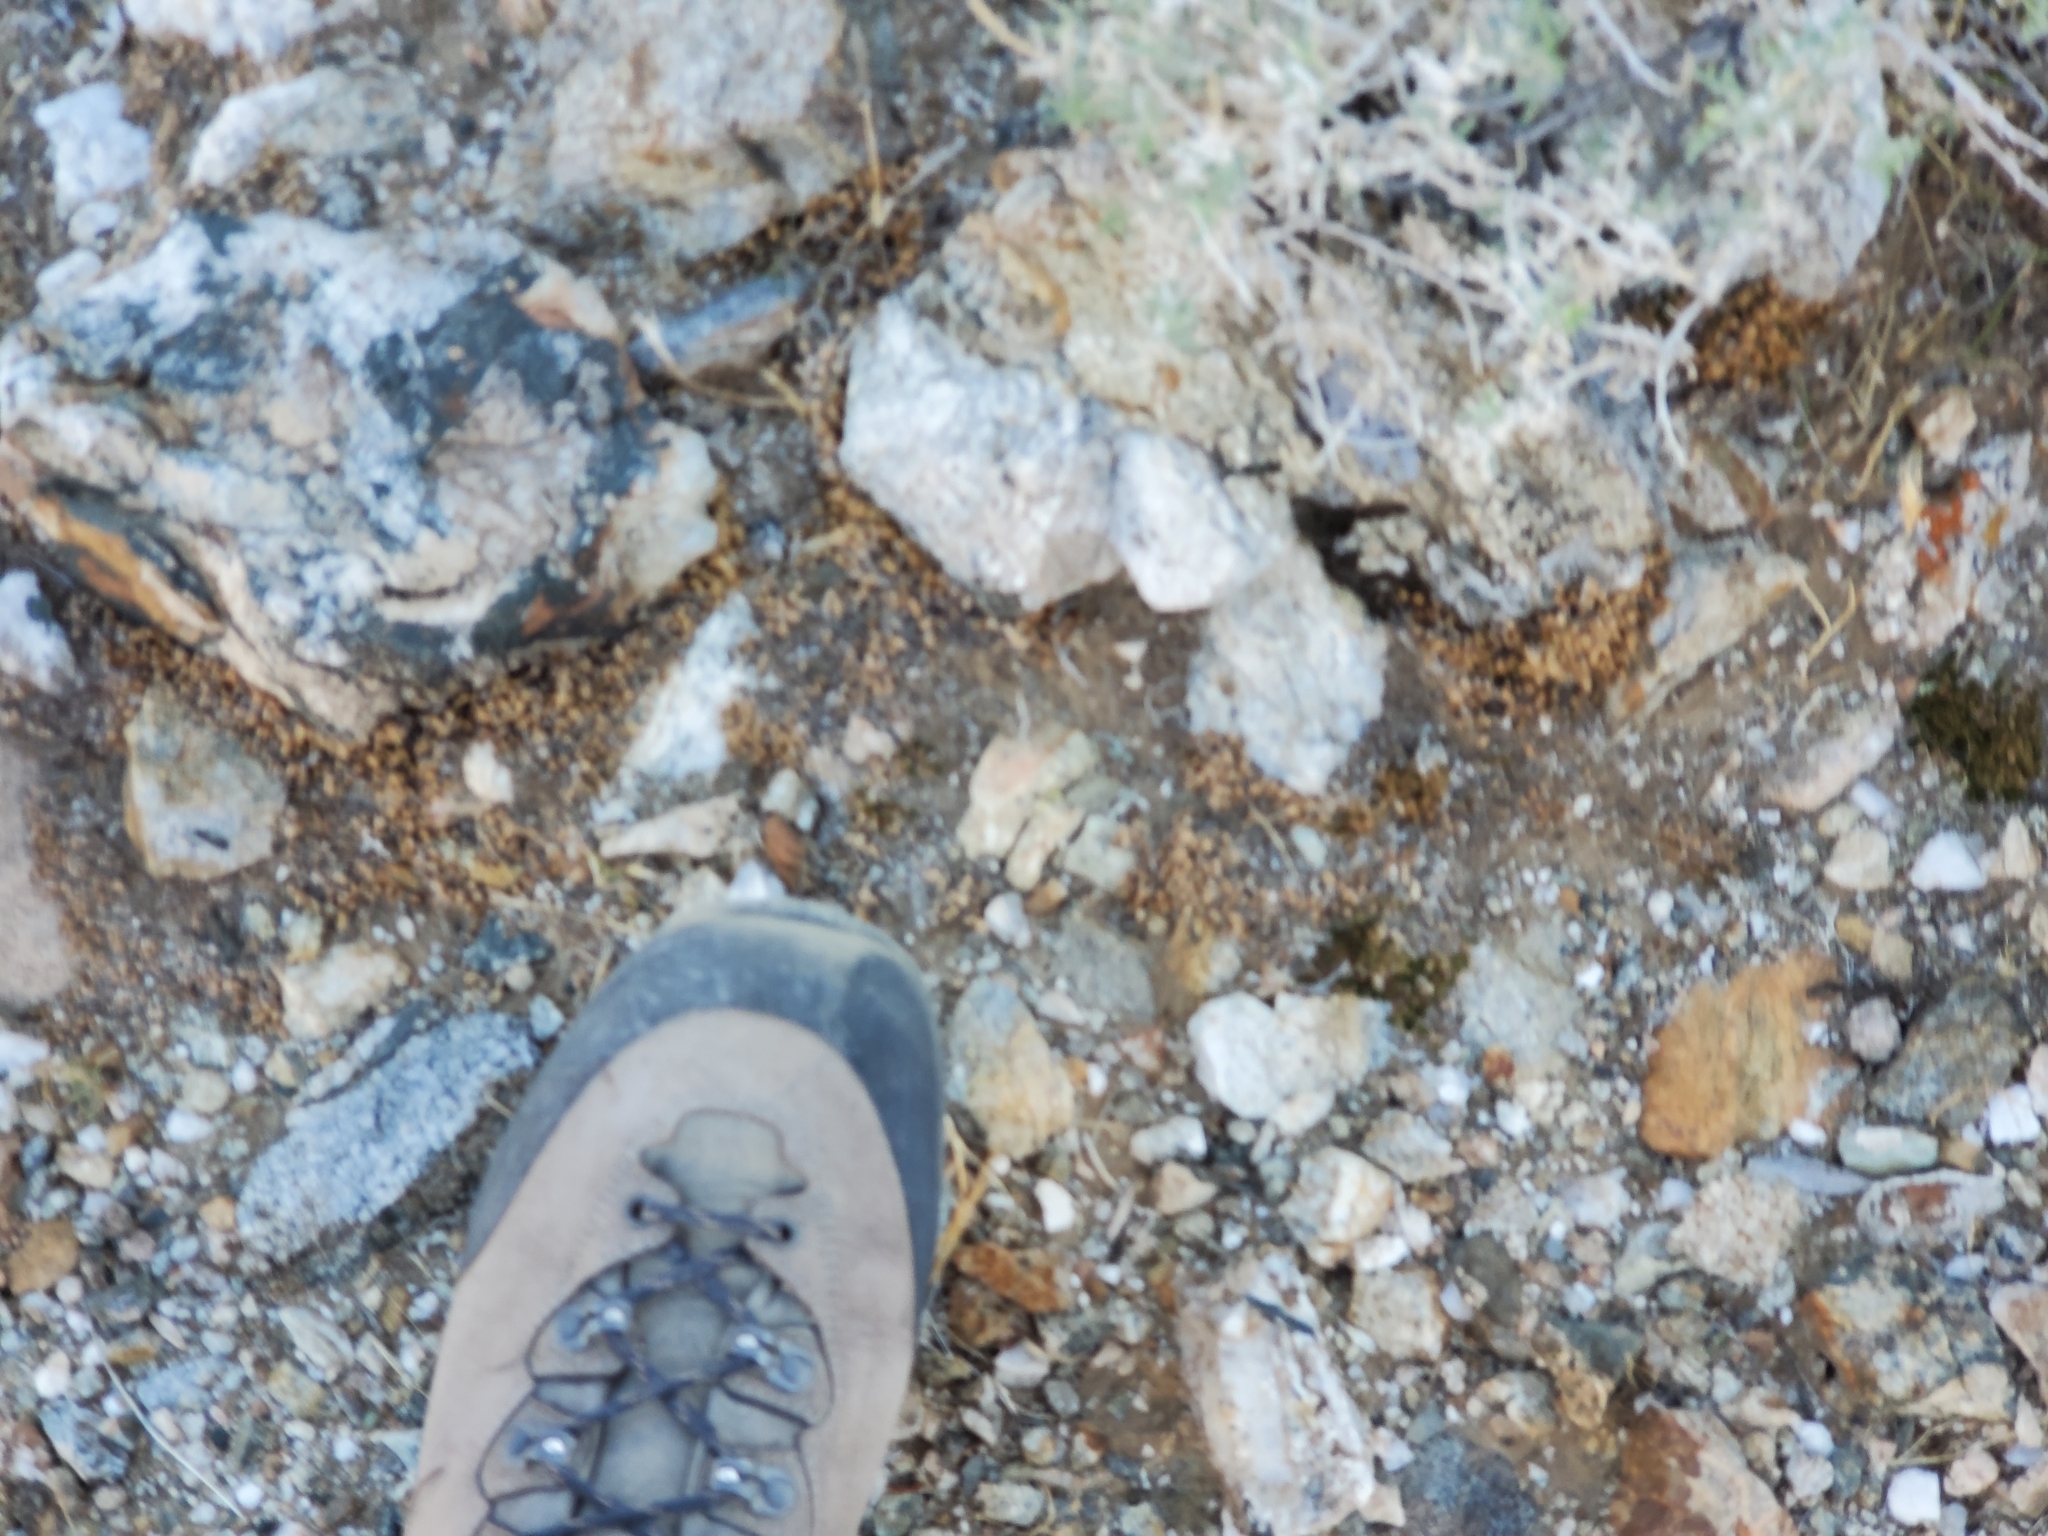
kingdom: Plantae
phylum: Tracheophyta
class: Lycopodiopsida
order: Selaginellales
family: Selaginellaceae
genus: Selaginella
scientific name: Selaginella eremophila
